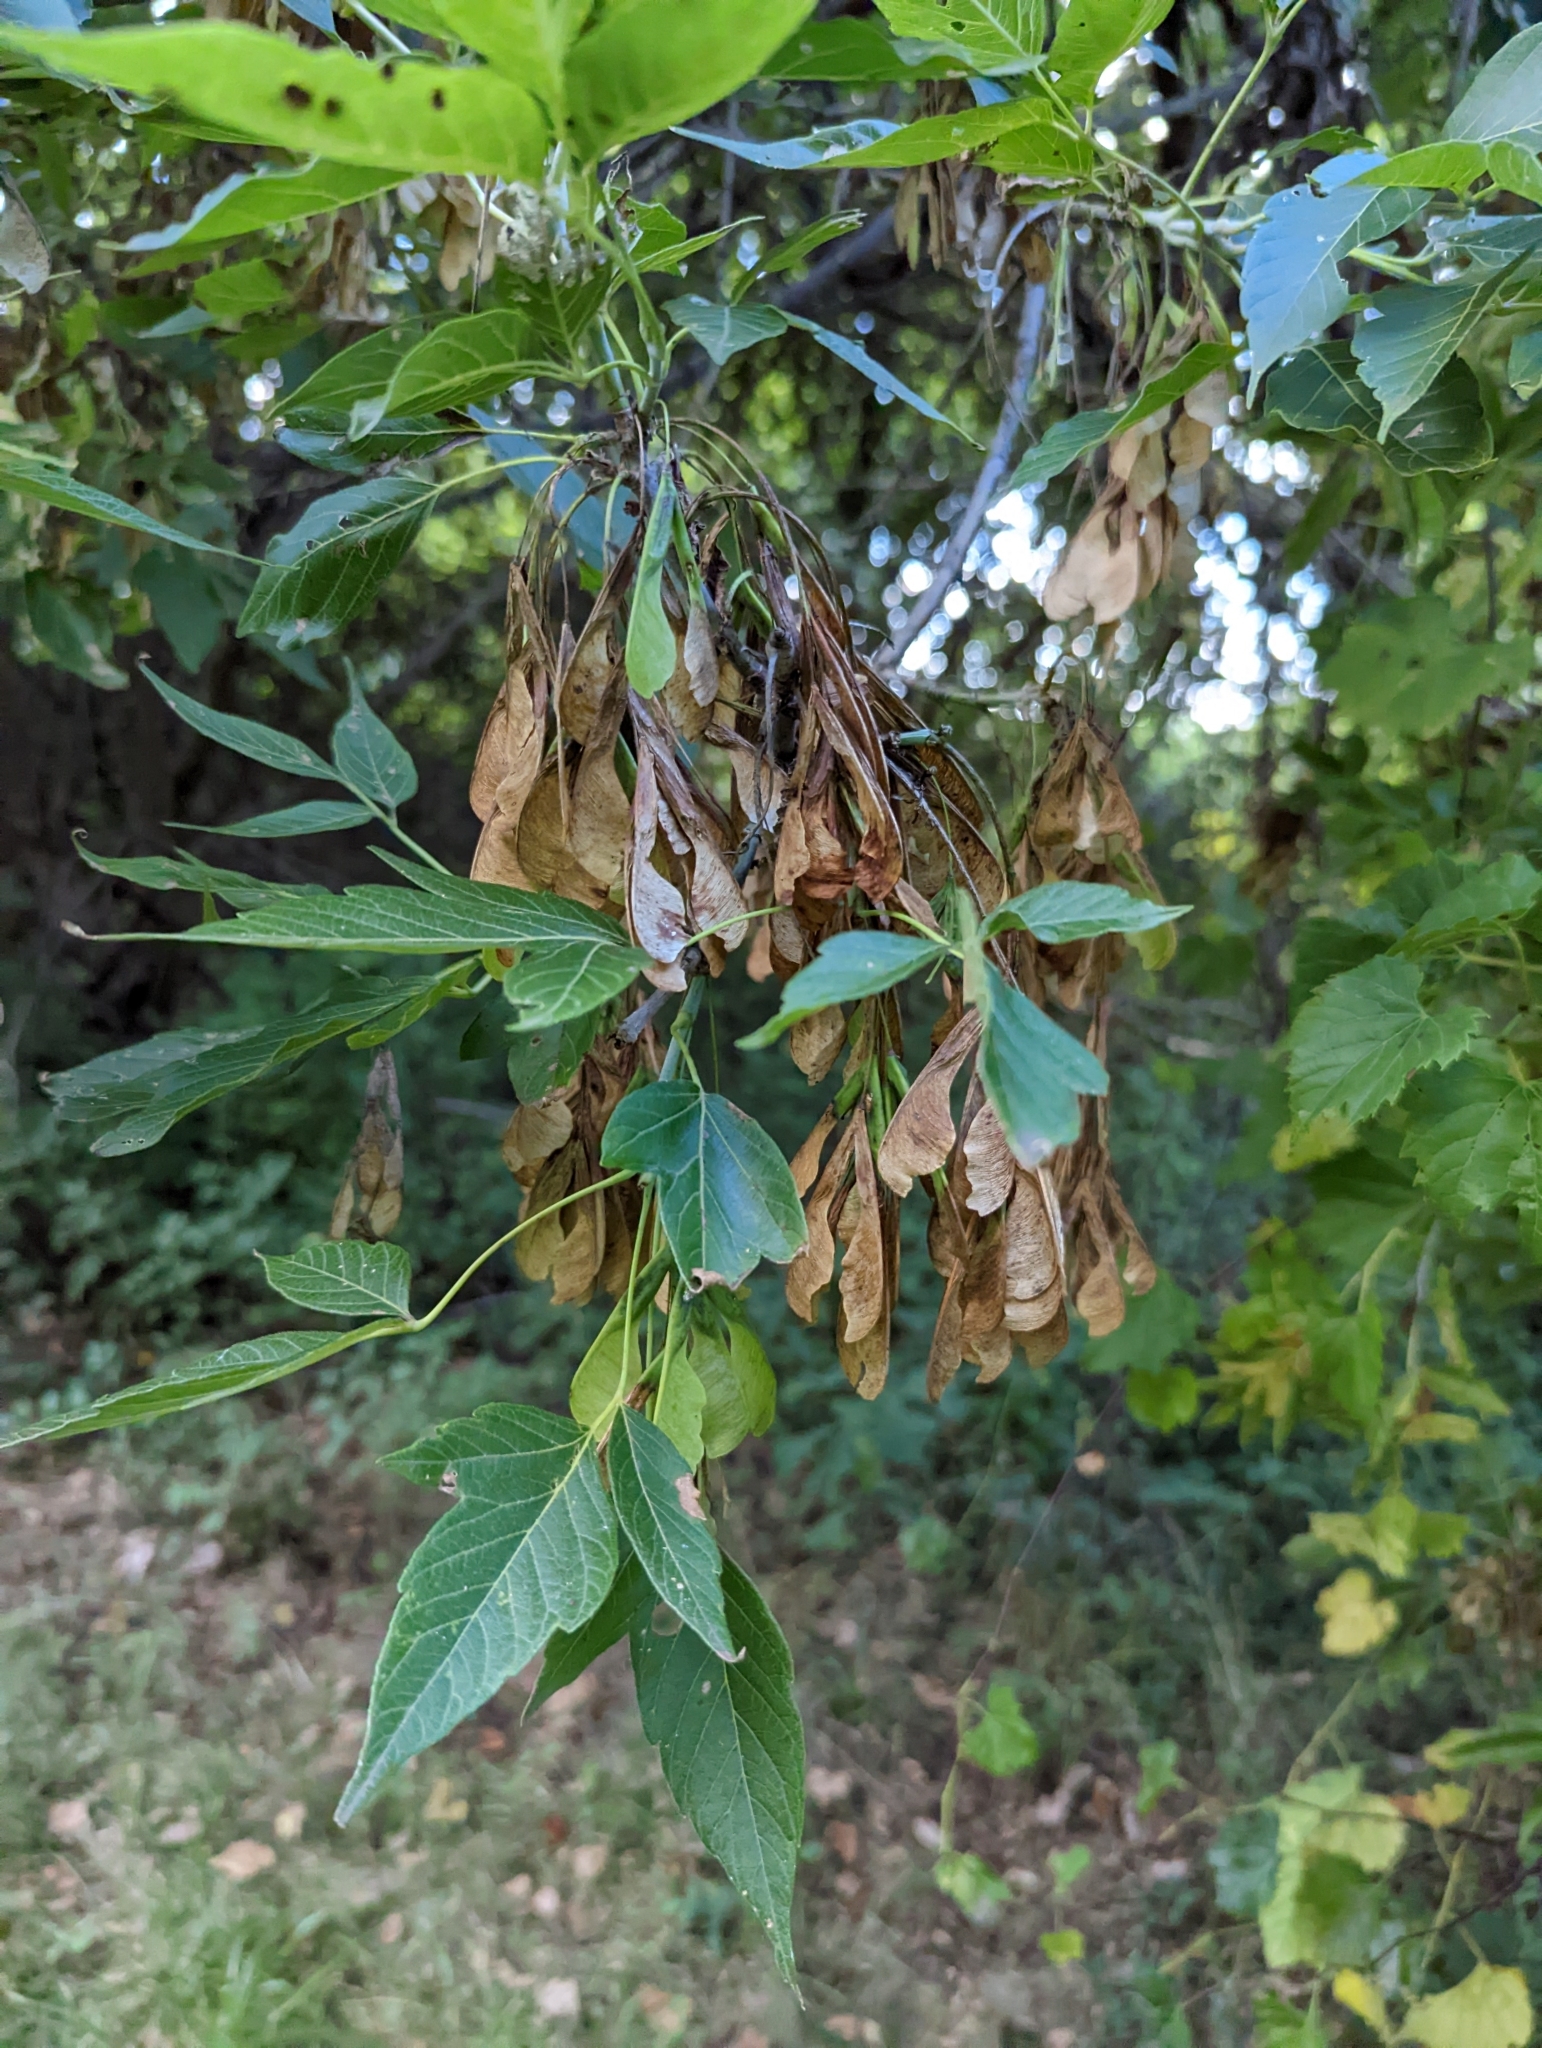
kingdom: Plantae
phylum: Tracheophyta
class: Magnoliopsida
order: Sapindales
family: Sapindaceae
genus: Acer
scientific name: Acer negundo
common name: Ashleaf maple
